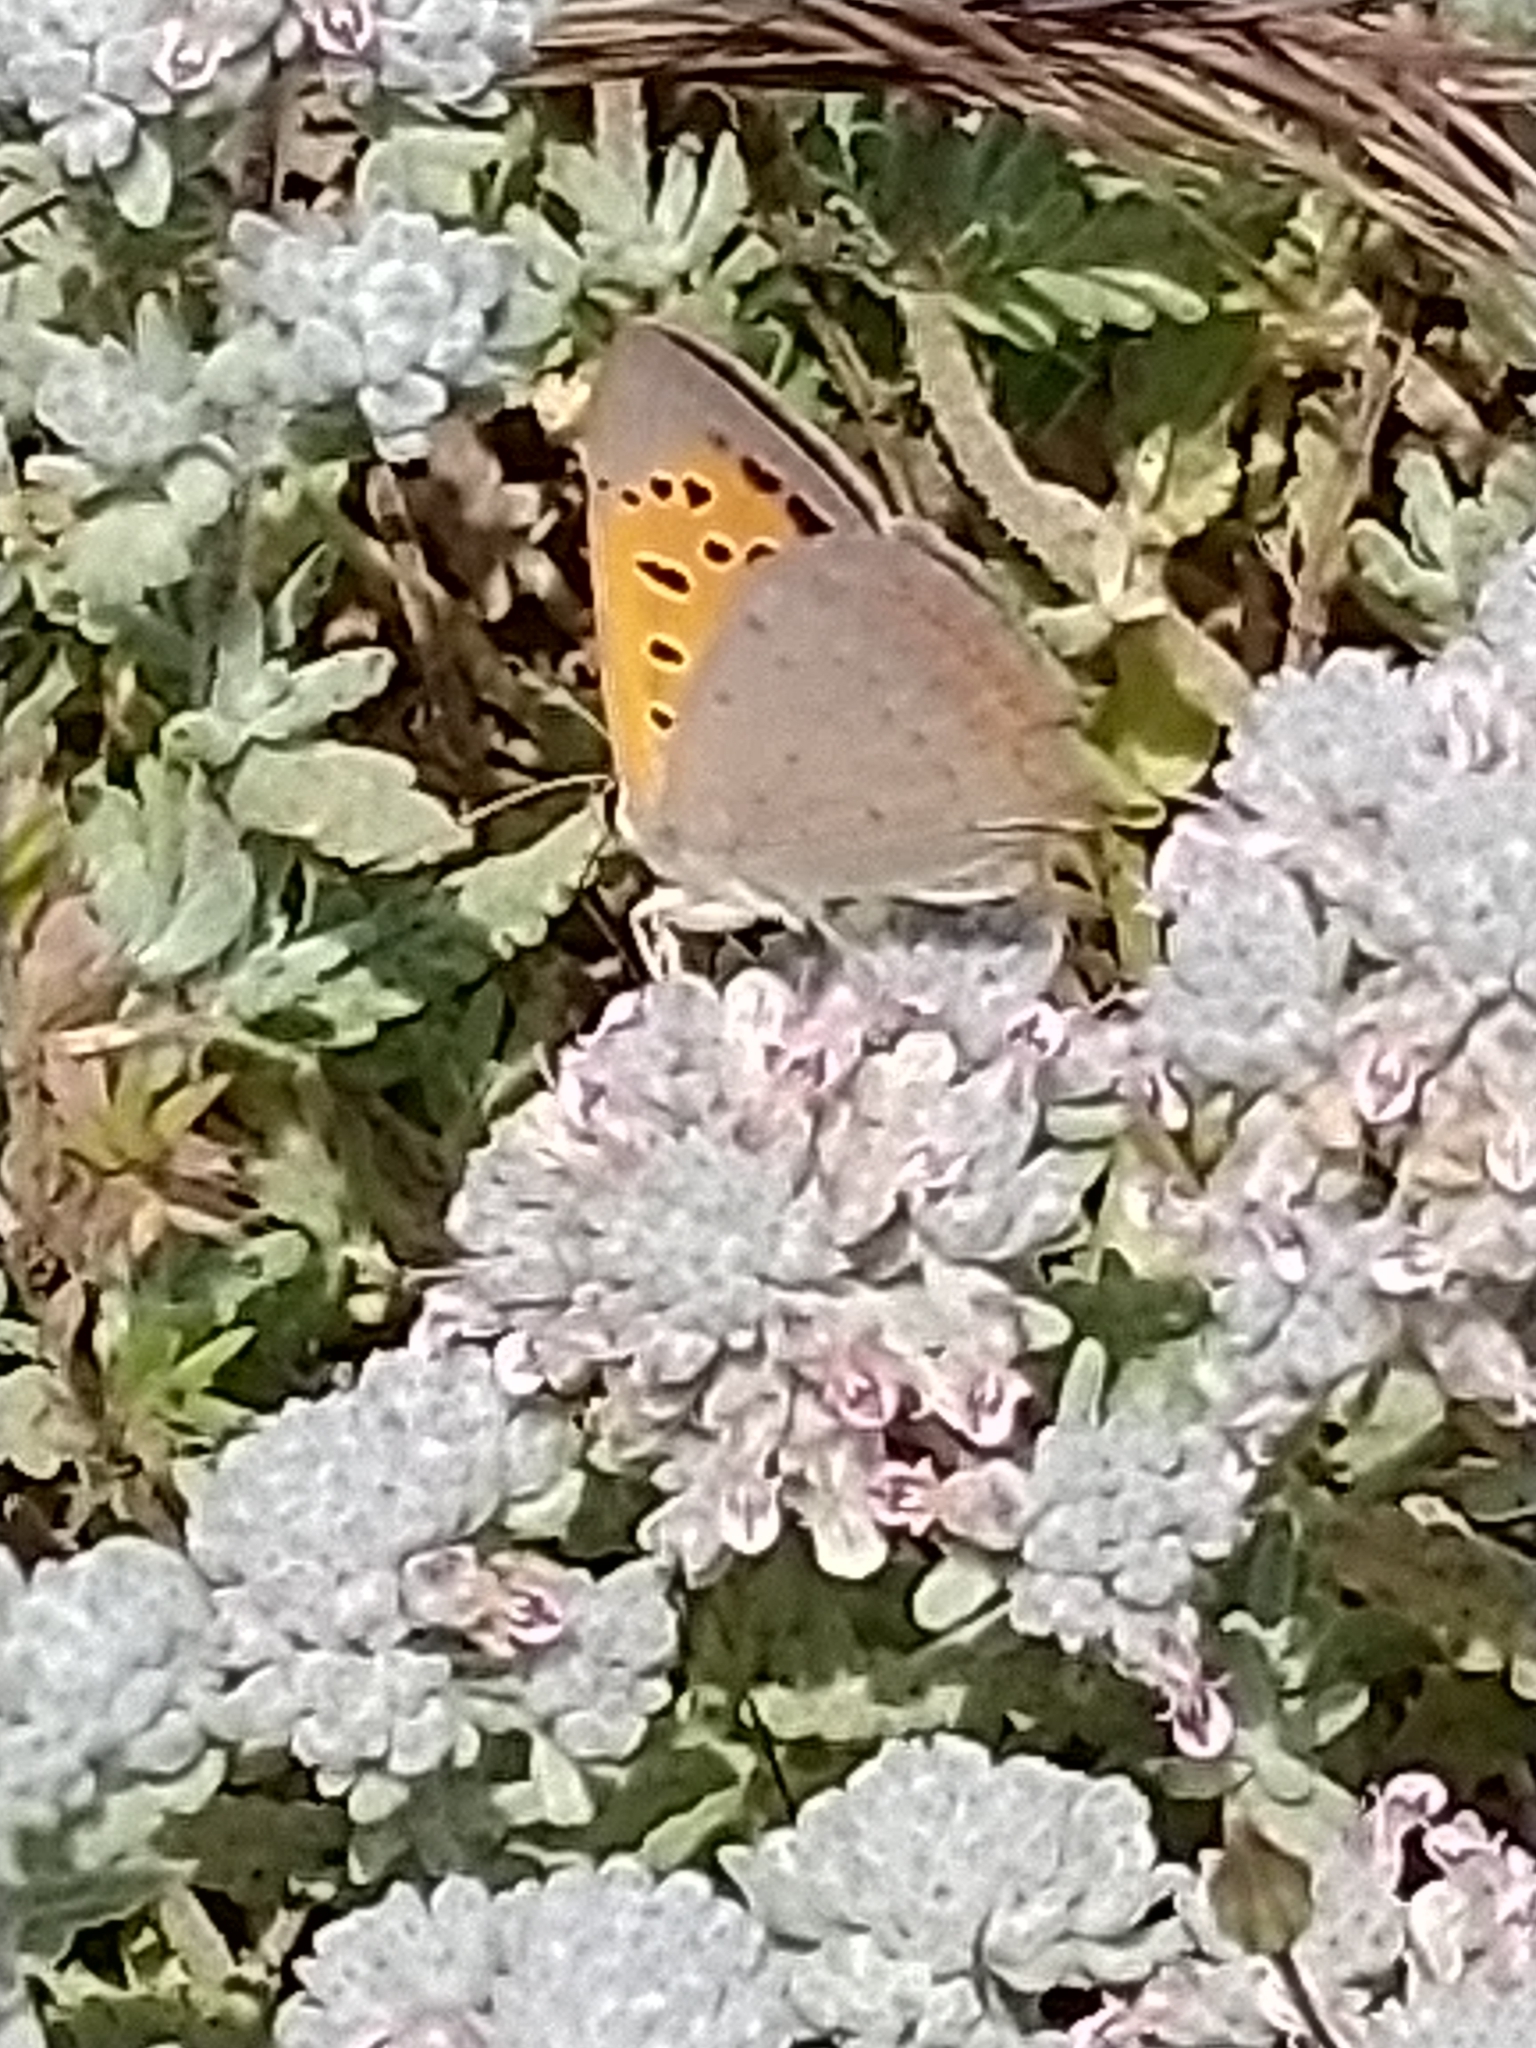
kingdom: Animalia
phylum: Arthropoda
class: Insecta
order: Lepidoptera
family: Lycaenidae
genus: Lycaena
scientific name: Lycaena phlaeas
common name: Small copper
